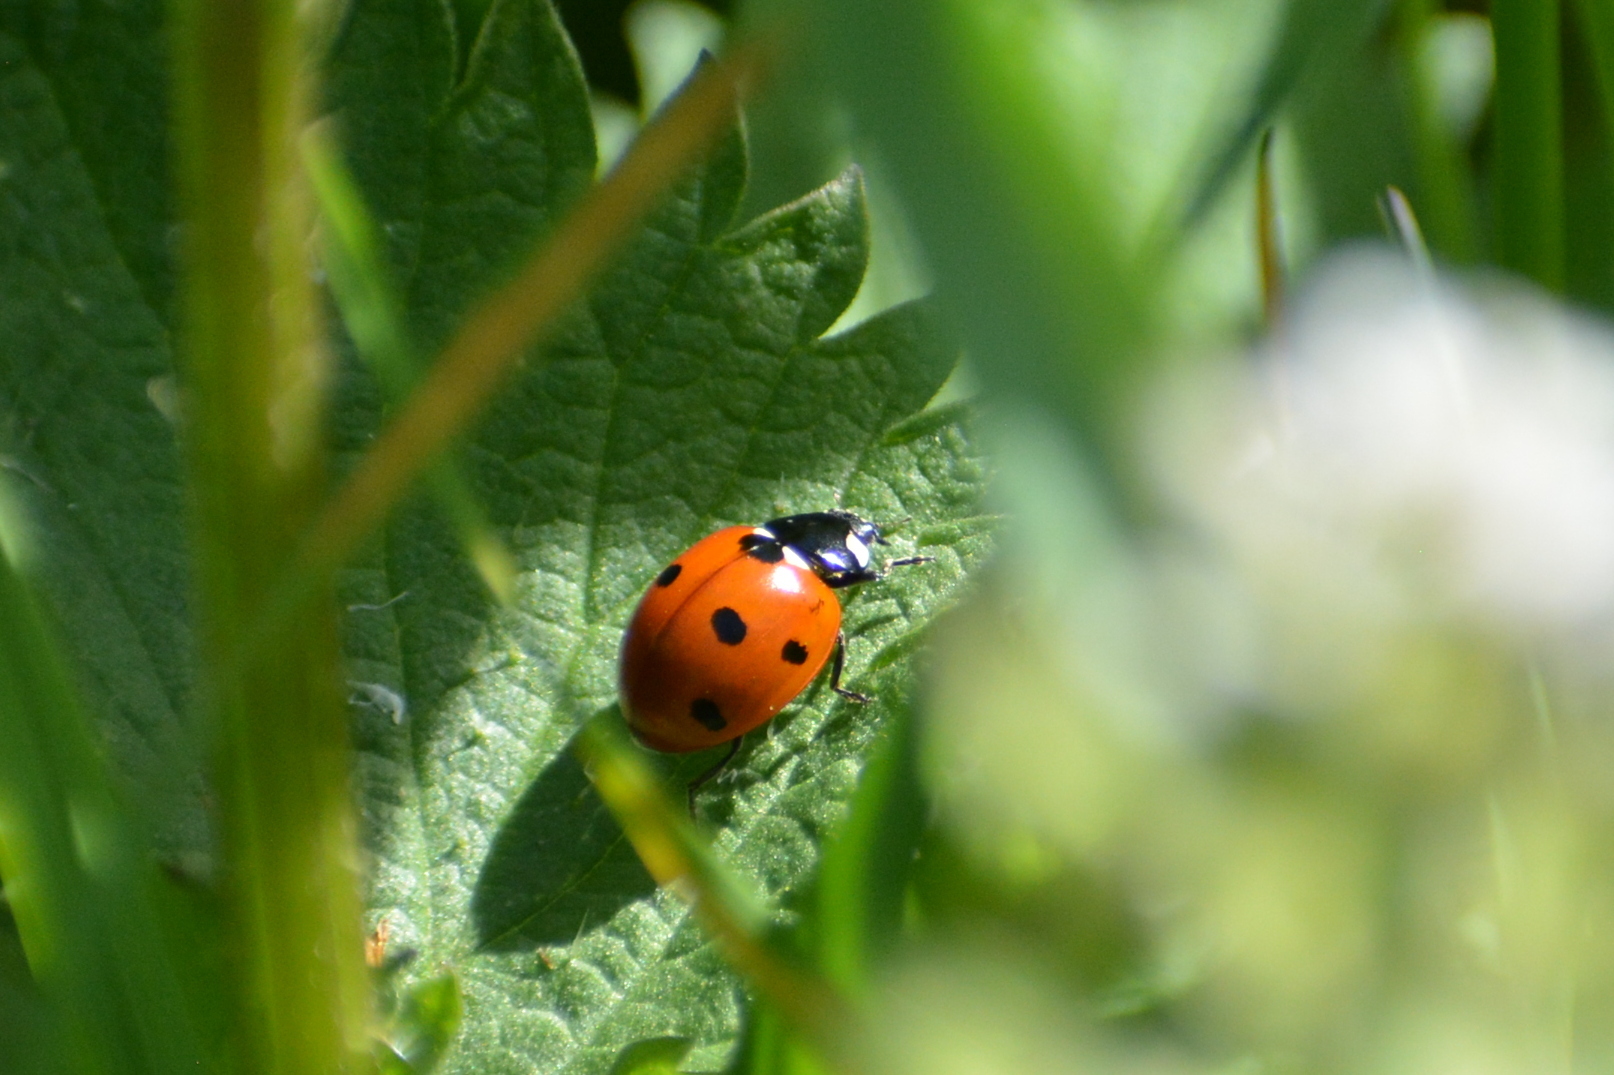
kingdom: Animalia
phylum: Arthropoda
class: Insecta
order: Coleoptera
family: Coccinellidae
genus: Coccinella
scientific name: Coccinella septempunctata
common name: Sevenspotted lady beetle
